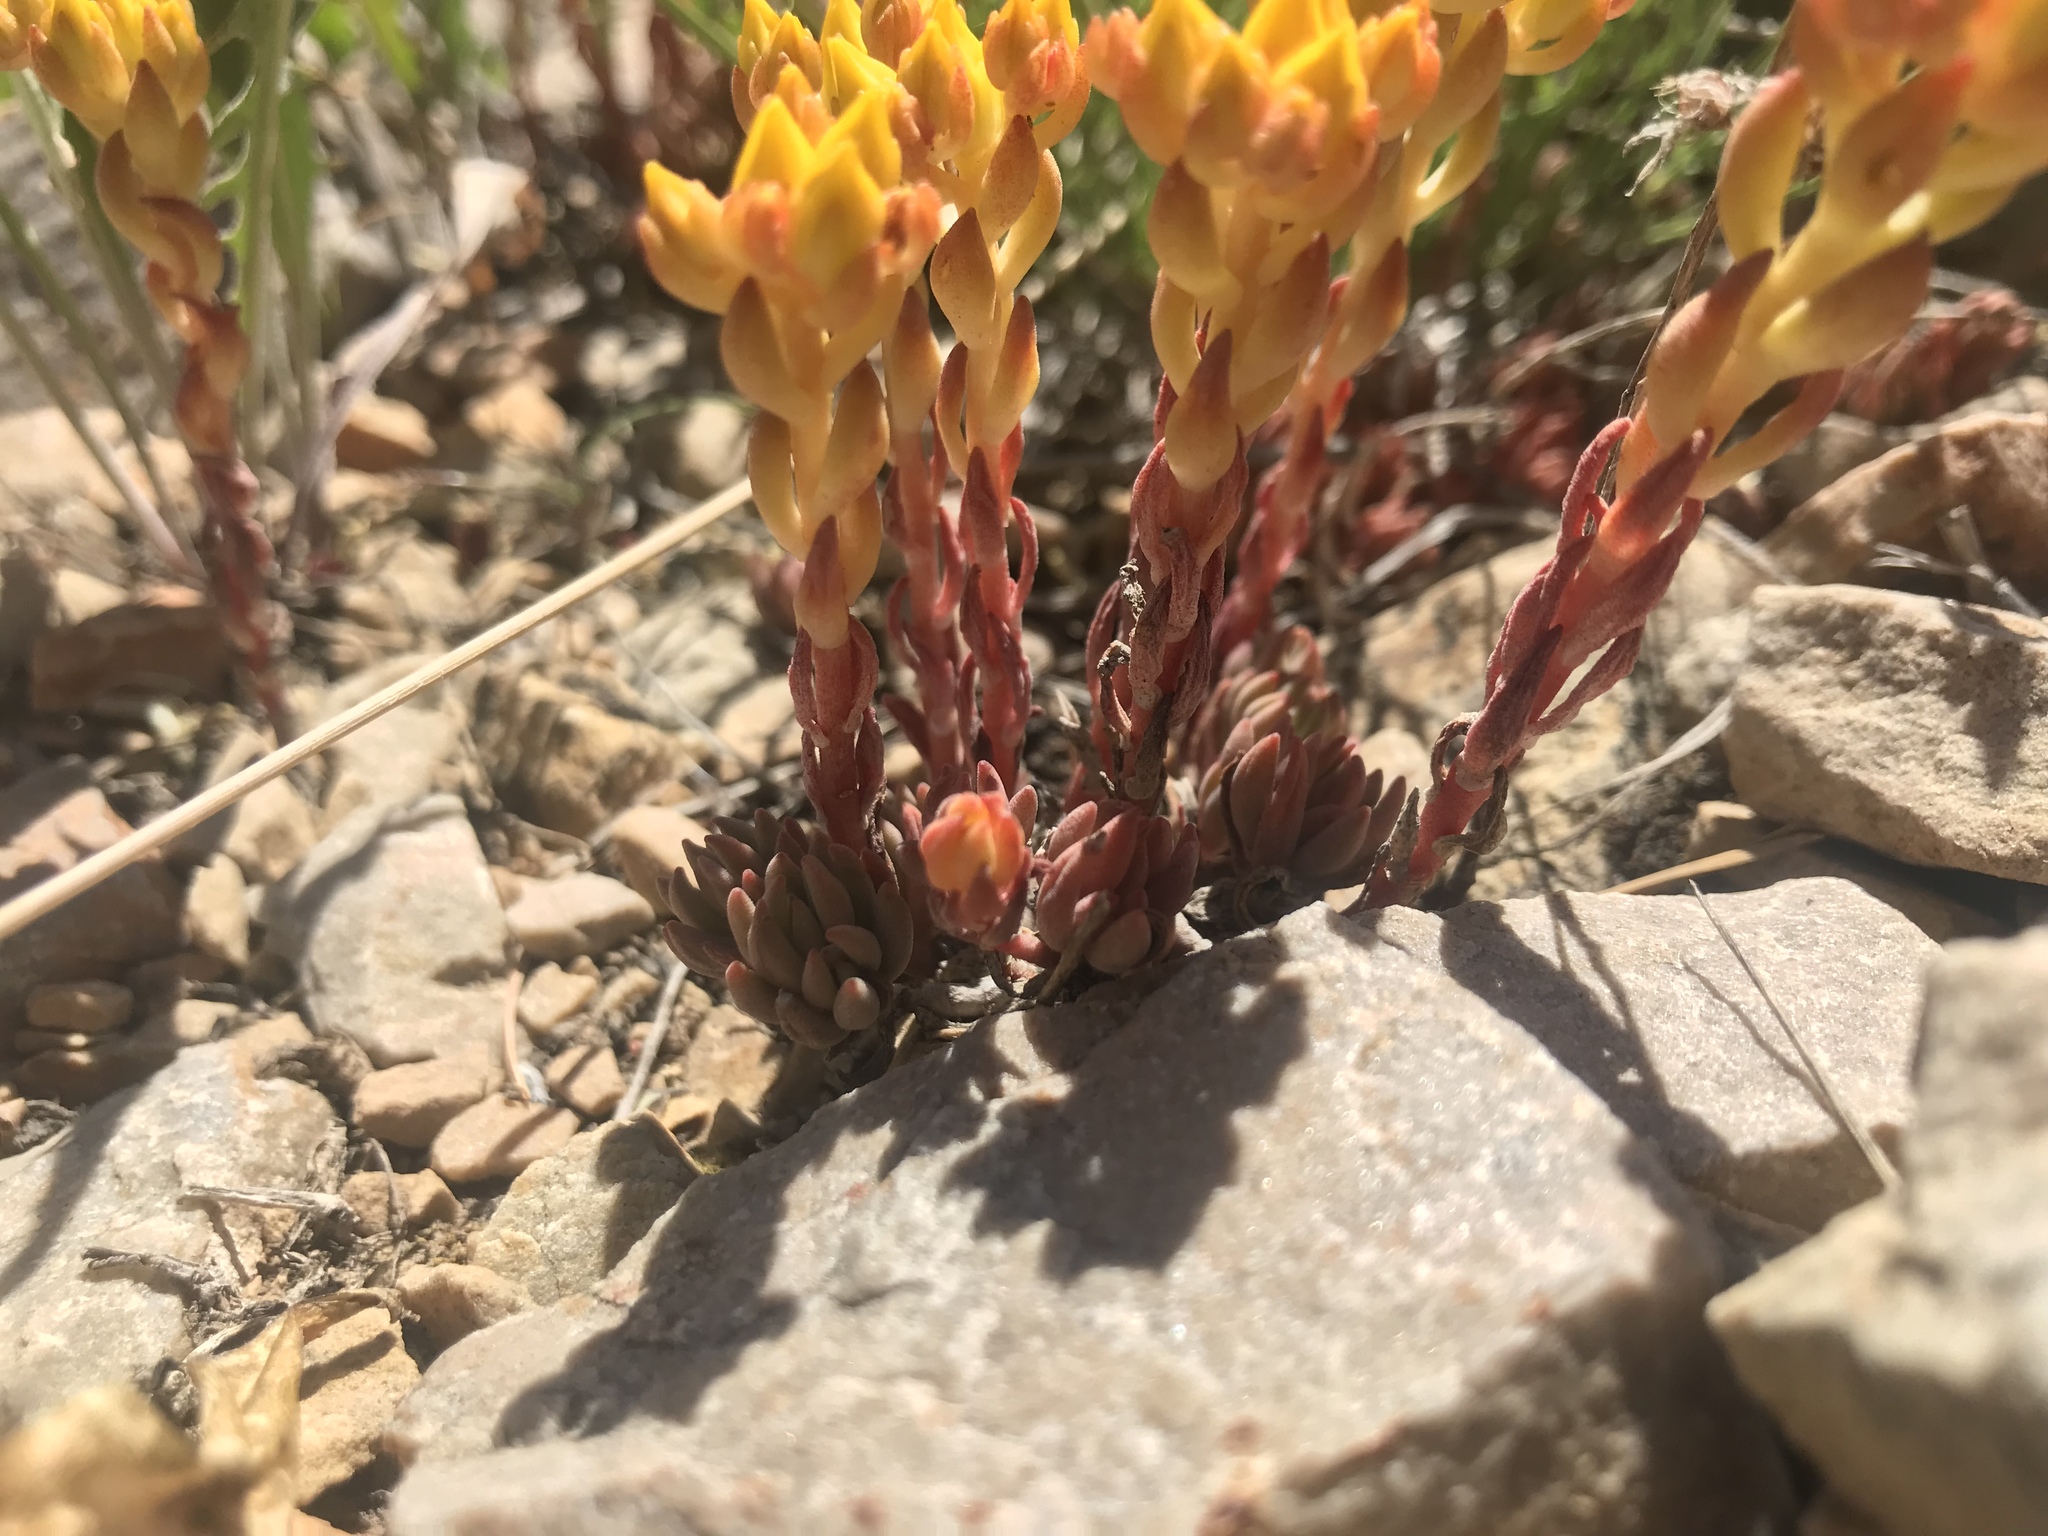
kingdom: Plantae
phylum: Tracheophyta
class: Magnoliopsida
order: Saxifragales
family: Crassulaceae
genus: Sedum
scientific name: Sedum lanceolatum
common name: Common stonecrop
